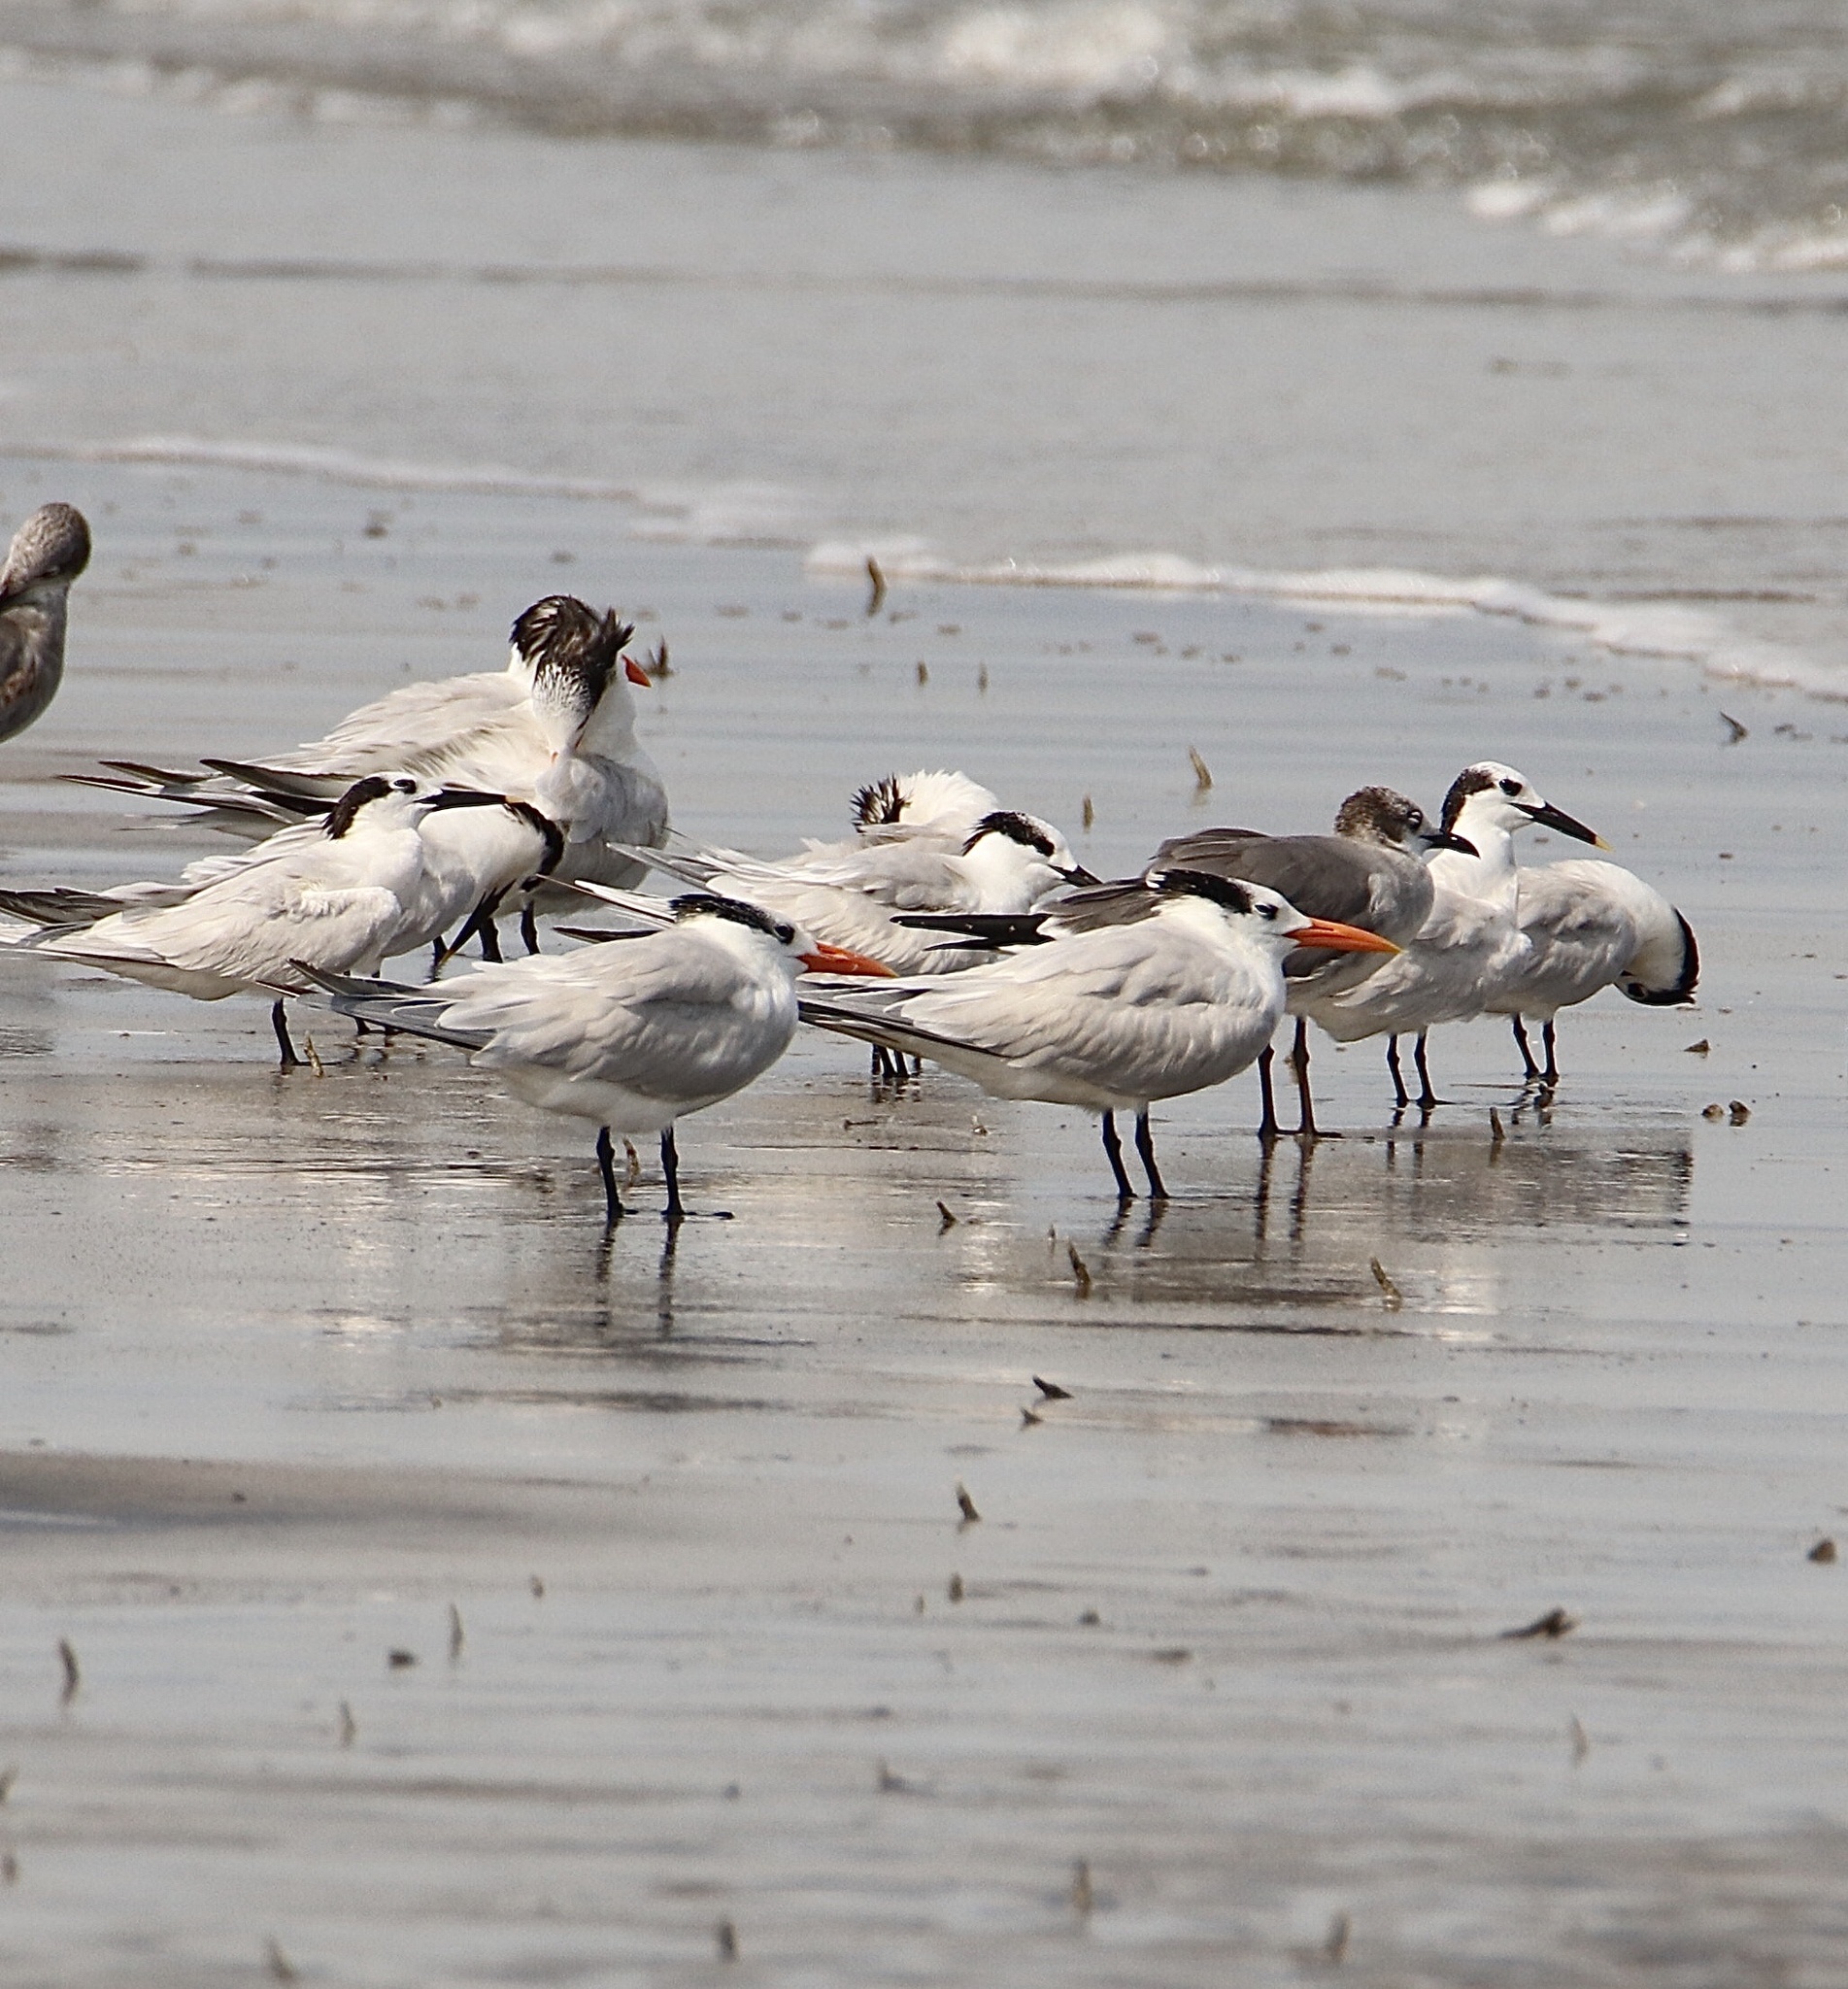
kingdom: Animalia
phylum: Chordata
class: Aves
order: Charadriiformes
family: Laridae
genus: Thalasseus
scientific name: Thalasseus sandvicensis
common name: Sandwich tern
